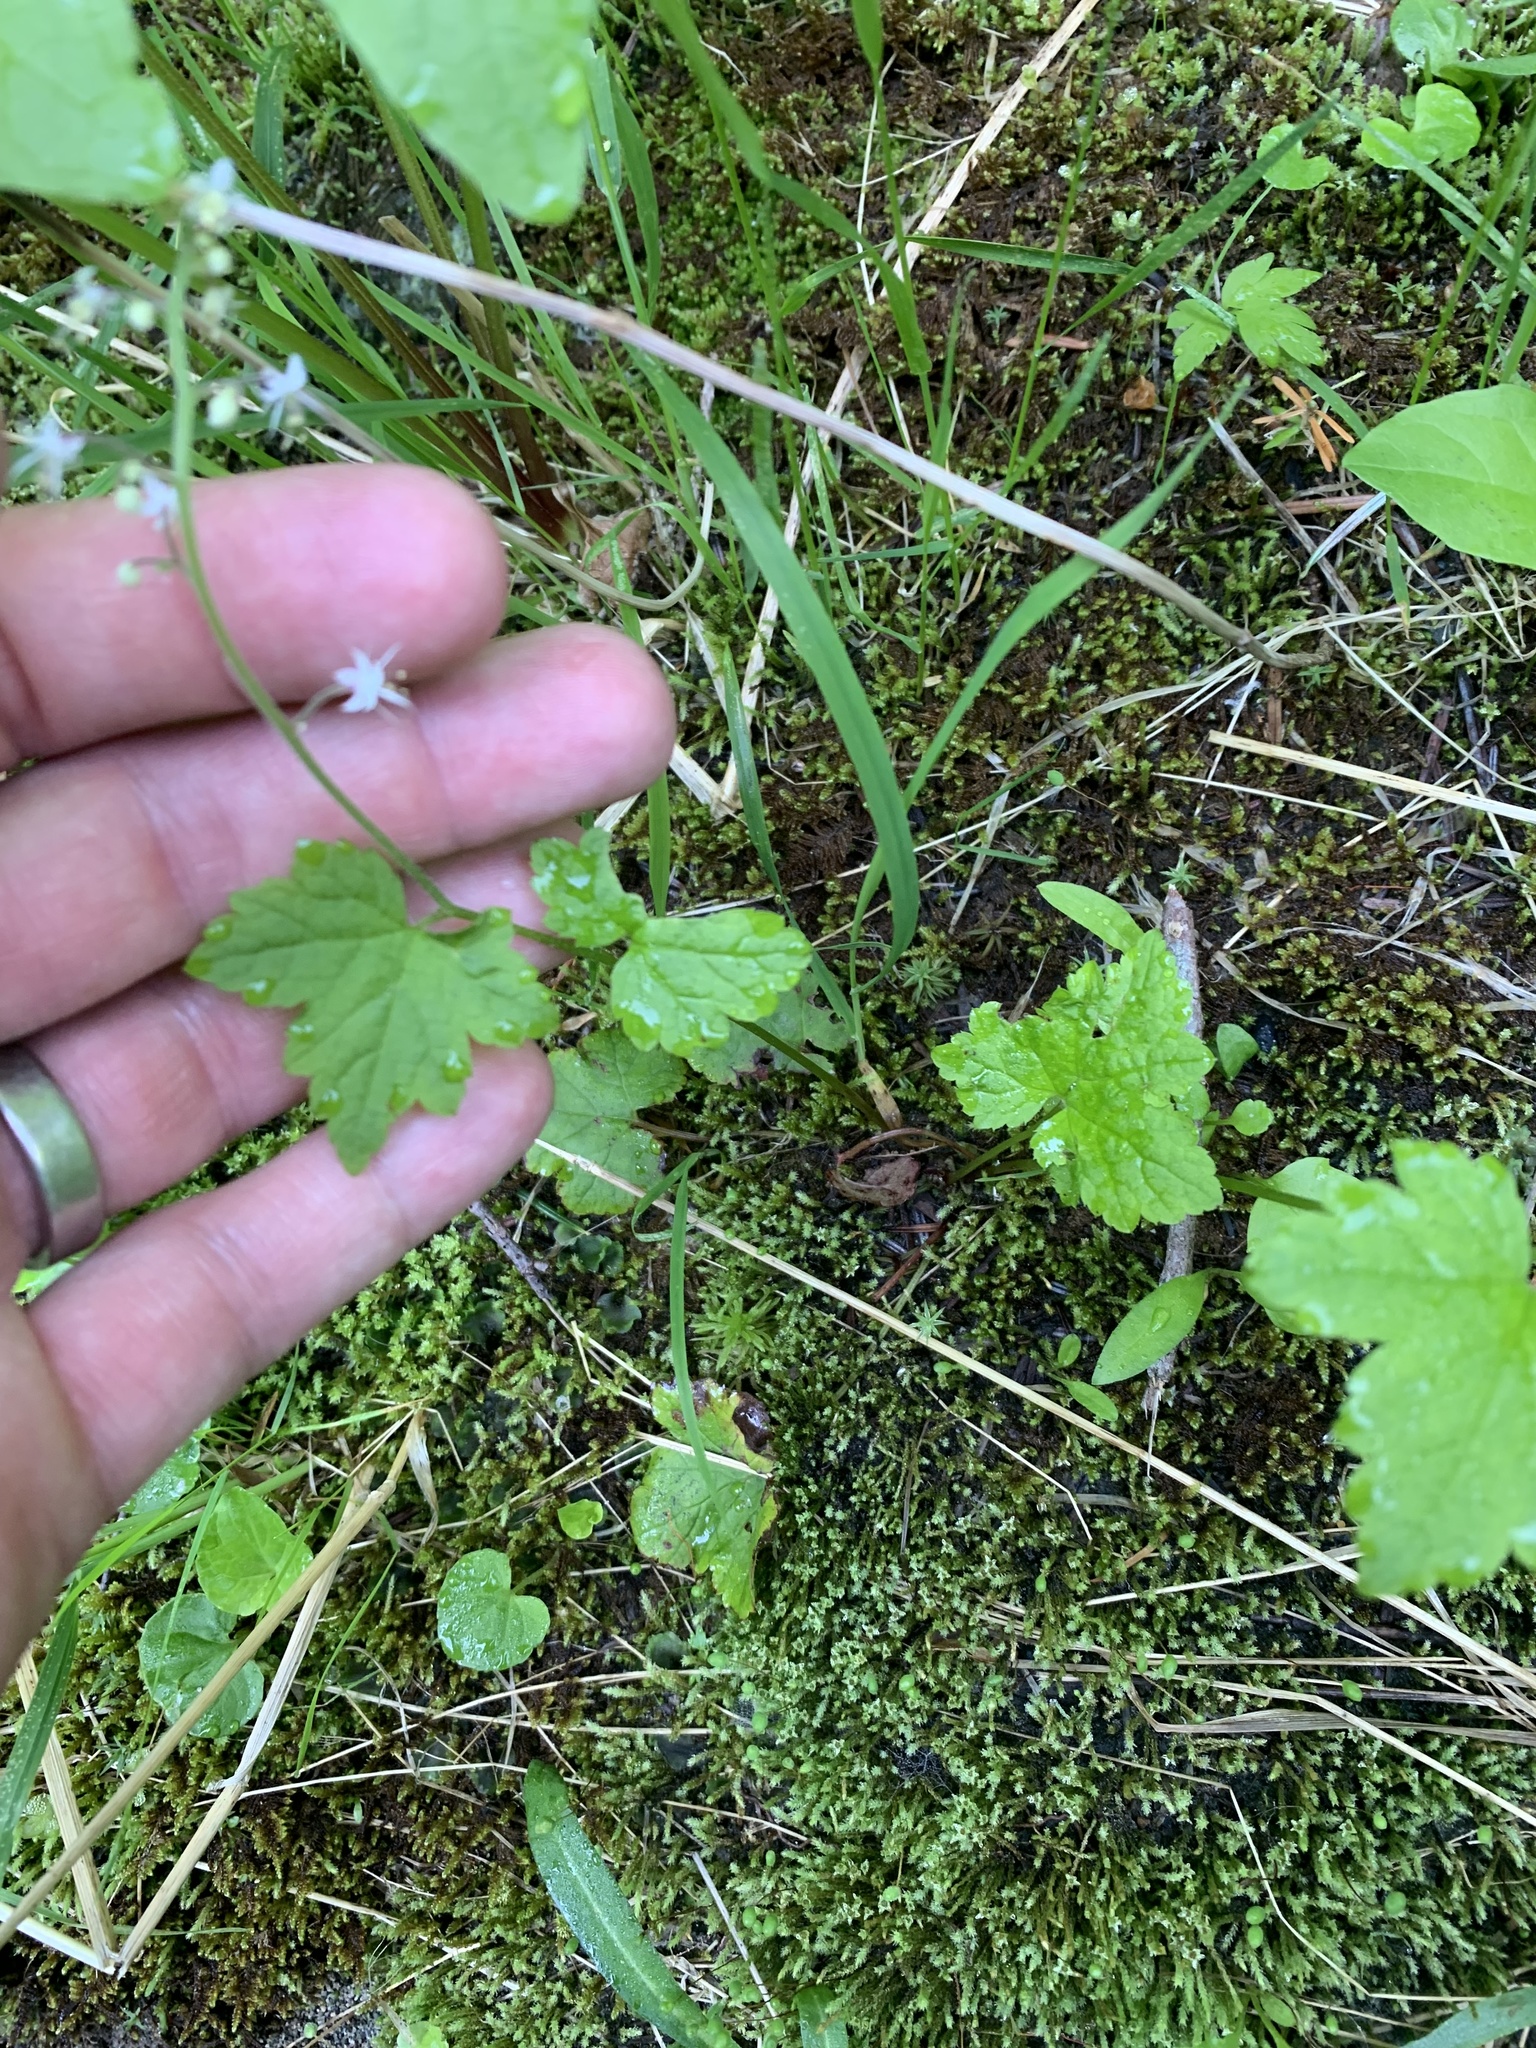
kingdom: Plantae
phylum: Tracheophyta
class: Magnoliopsida
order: Saxifragales
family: Saxifragaceae
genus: Tiarella
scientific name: Tiarella trifoliata
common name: Sugar-scoop
